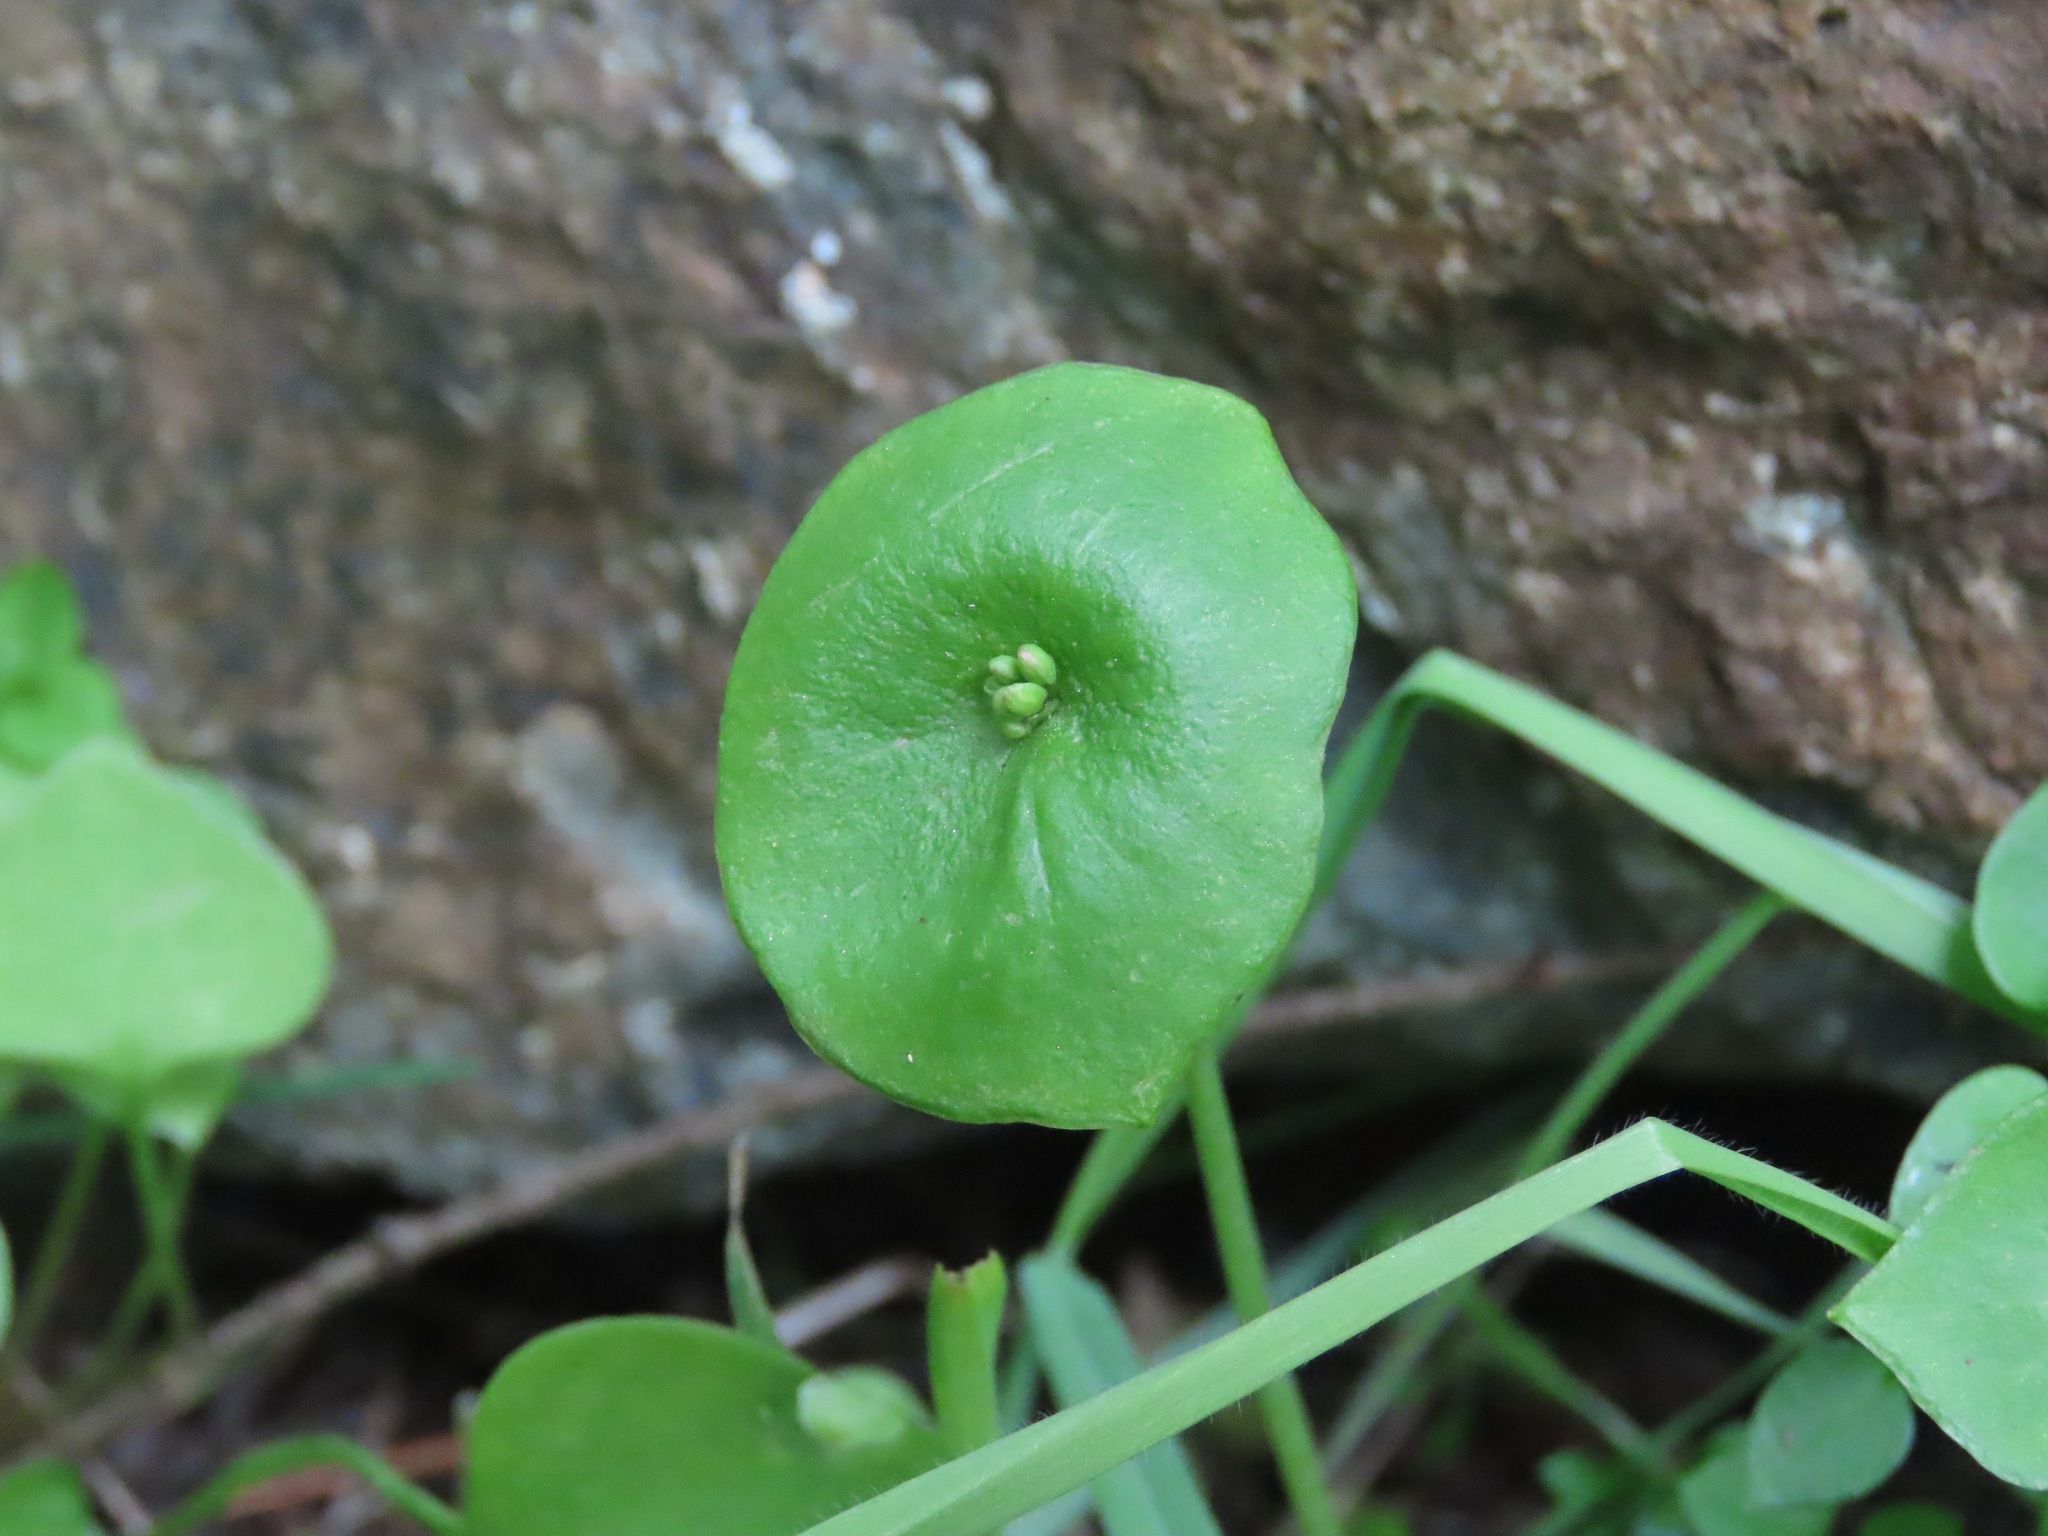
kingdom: Plantae
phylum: Tracheophyta
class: Magnoliopsida
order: Caryophyllales
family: Montiaceae
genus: Claytonia
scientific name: Claytonia perfoliata
